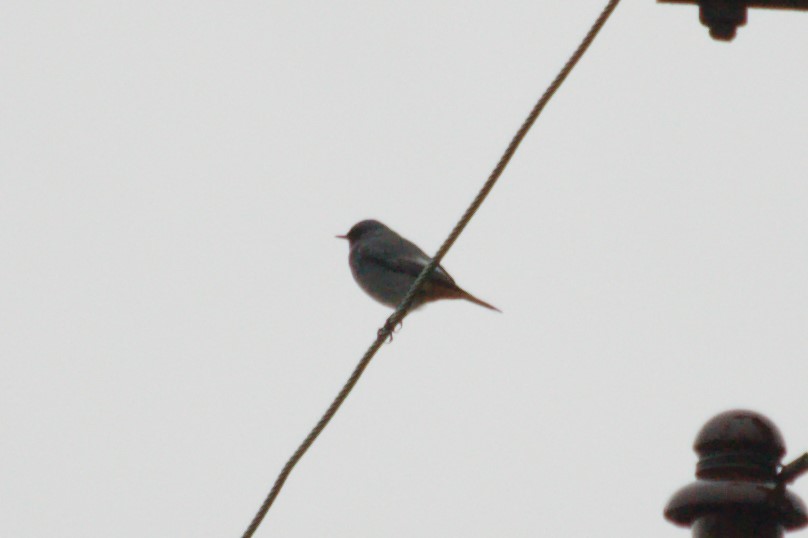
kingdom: Animalia
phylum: Chordata
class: Aves
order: Passeriformes
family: Muscicapidae
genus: Phoenicurus
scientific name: Phoenicurus ochruros
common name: Black redstart
